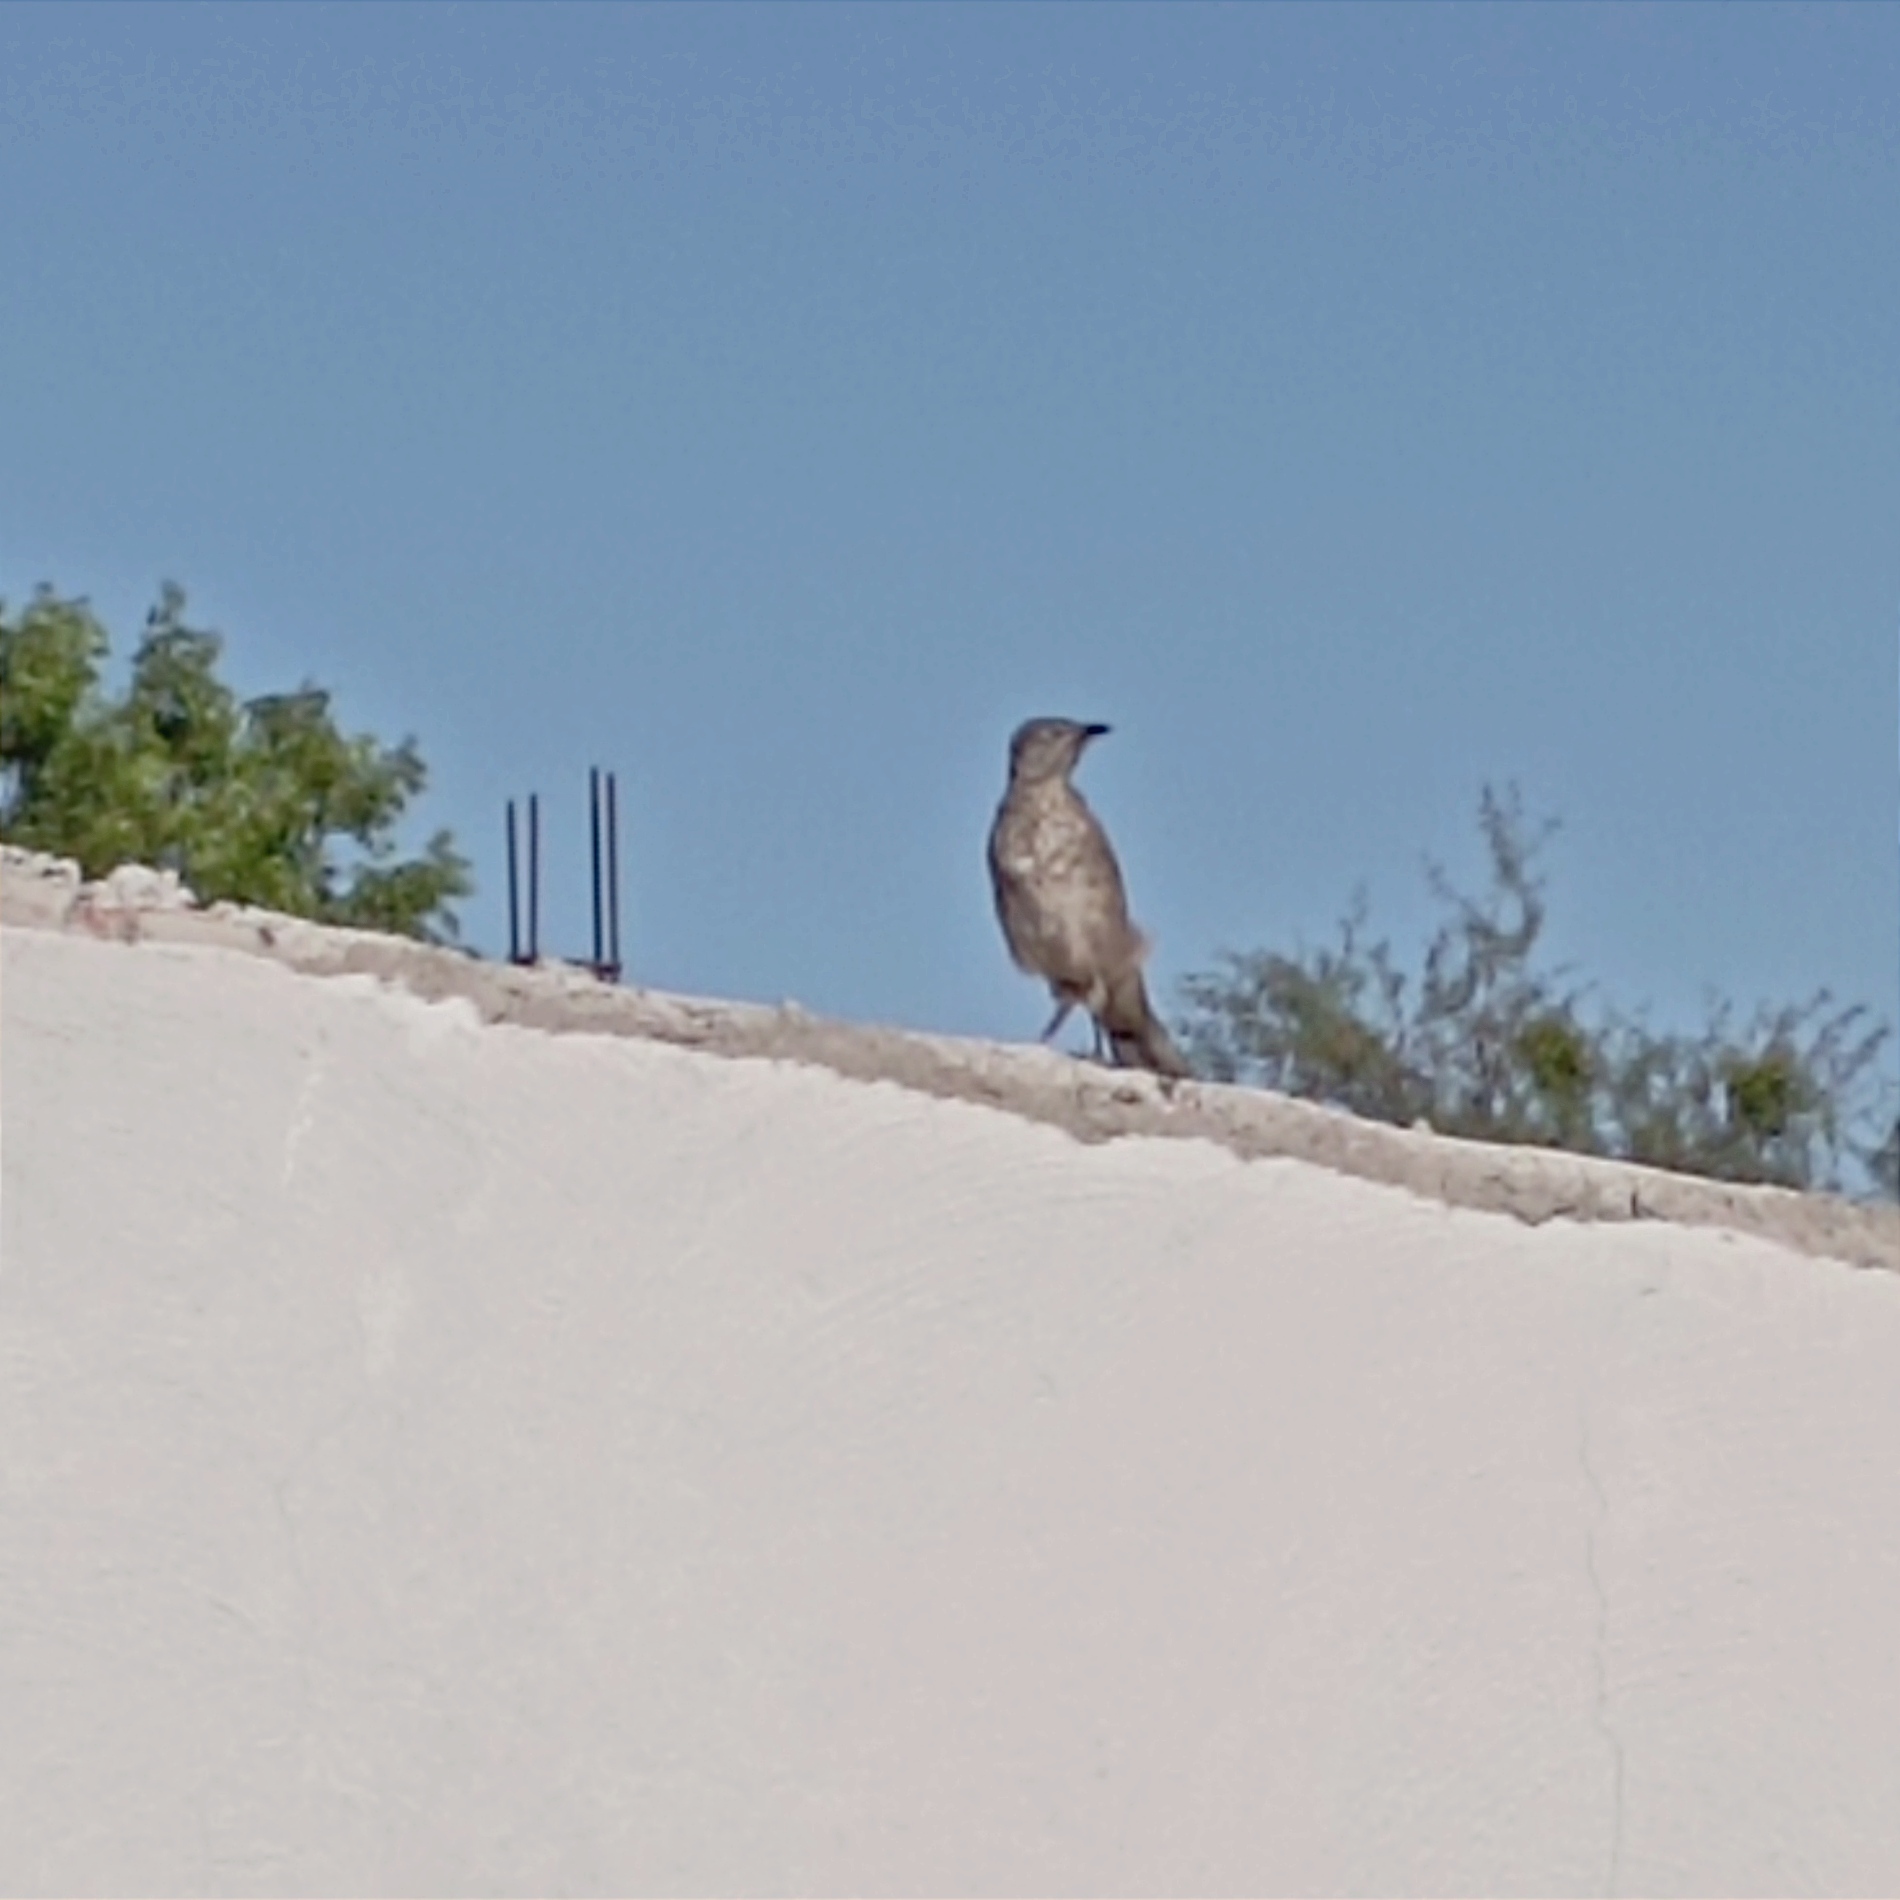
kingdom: Animalia
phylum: Chordata
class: Aves
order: Passeriformes
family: Mimidae
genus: Toxostoma
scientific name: Toxostoma curvirostre
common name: Curve-billed thrasher
